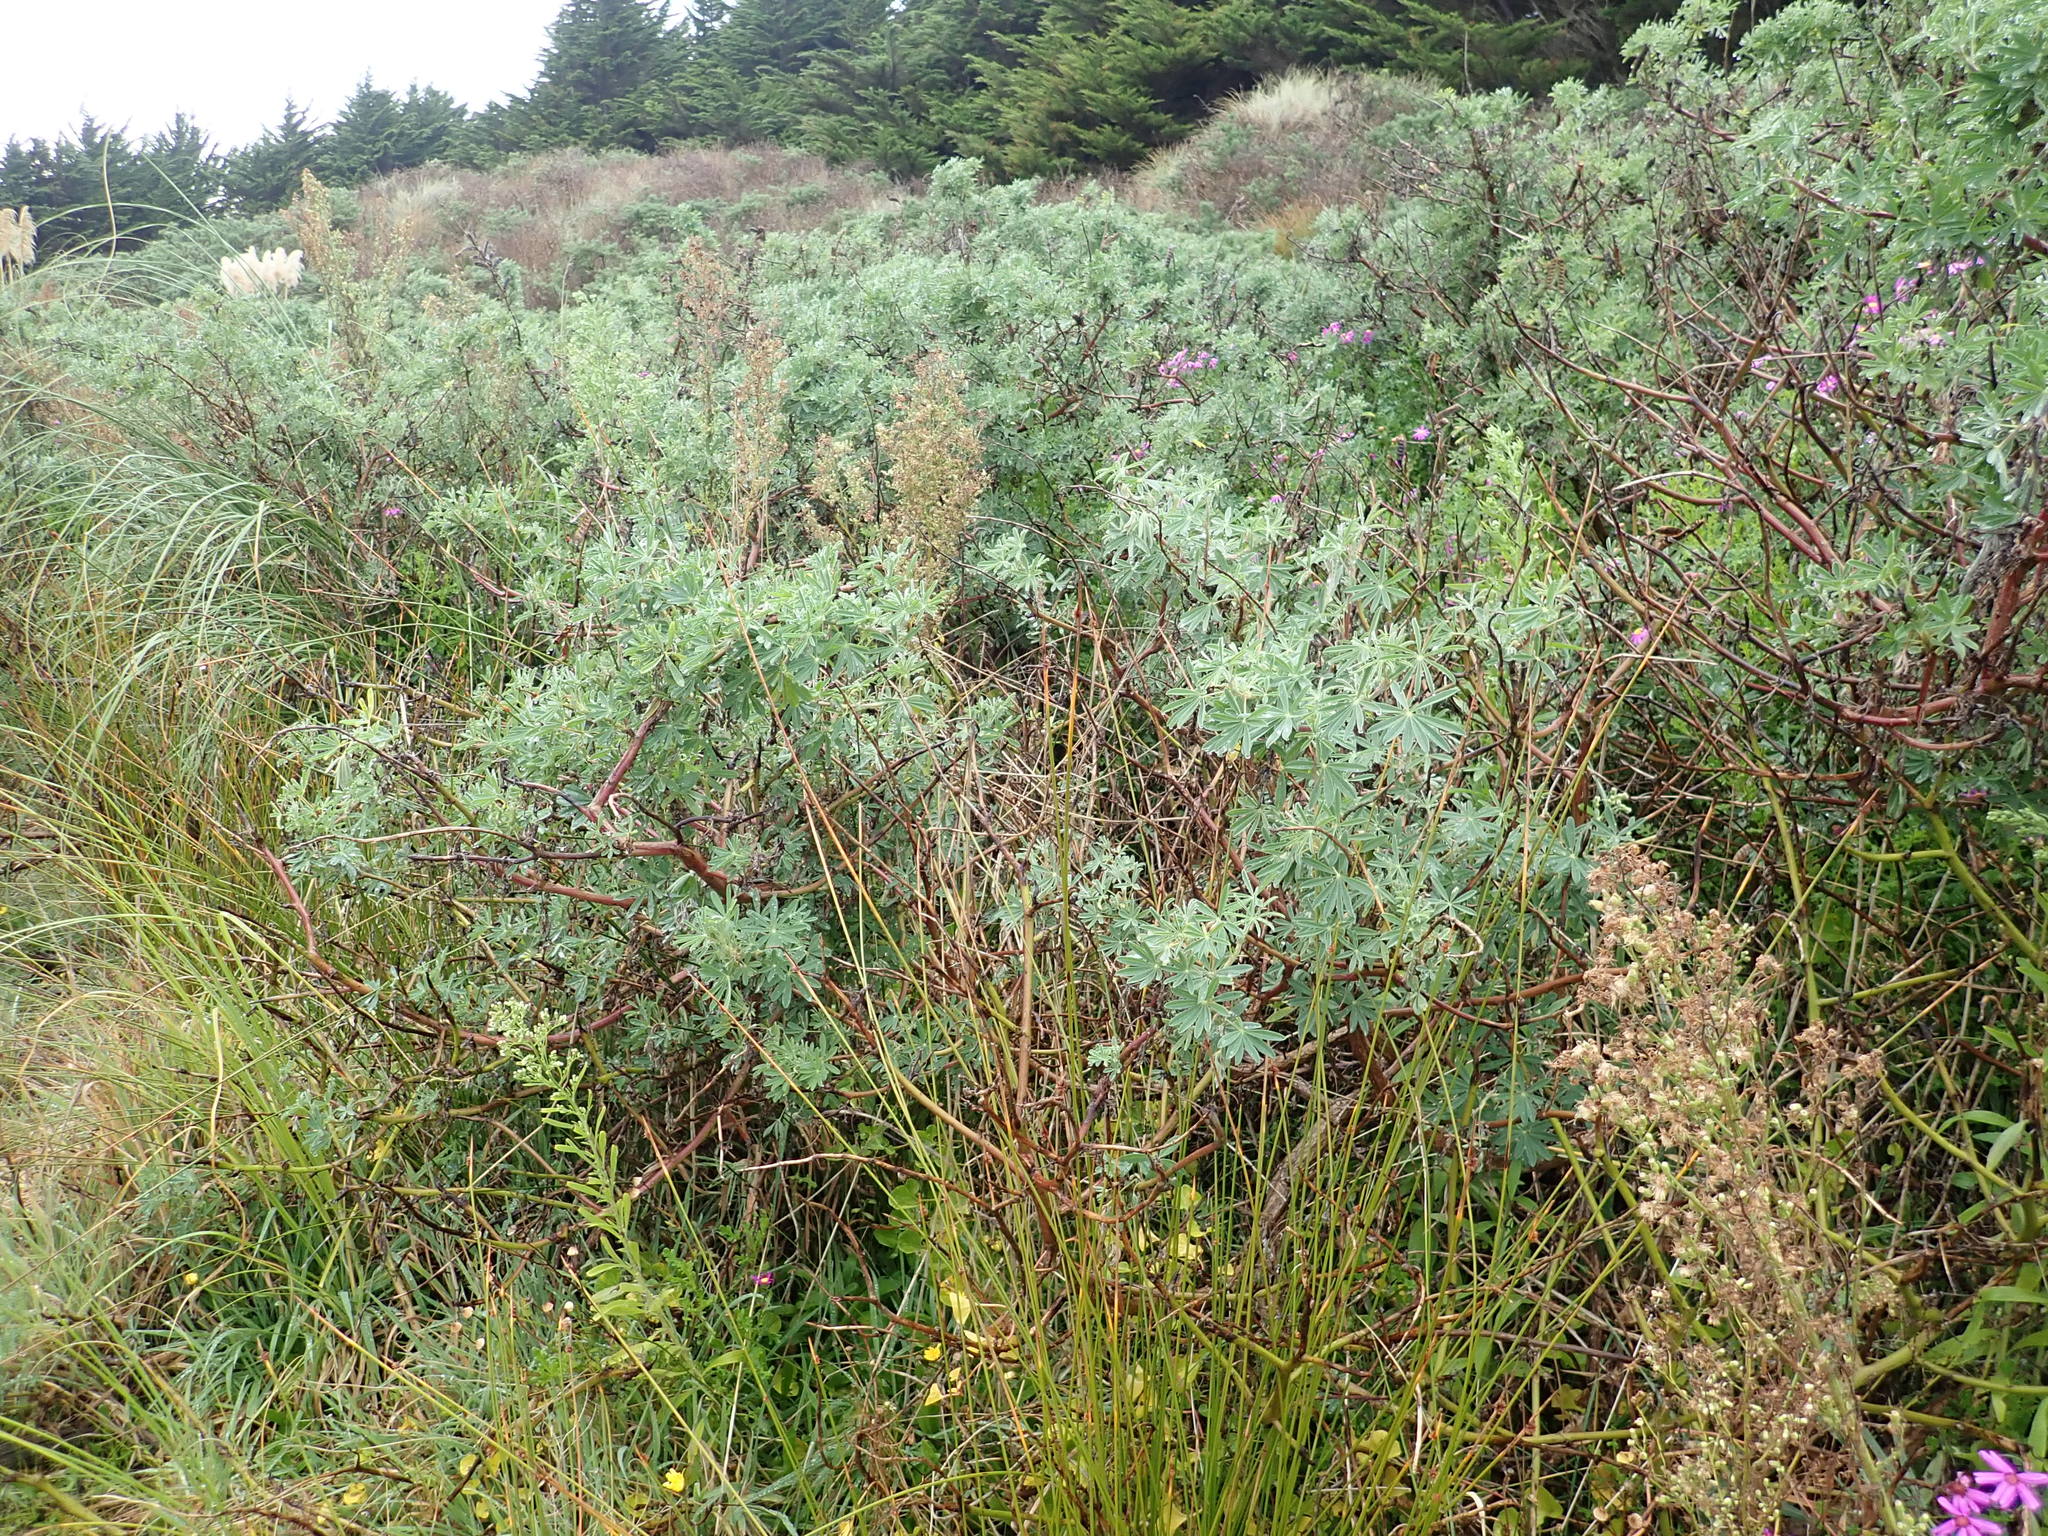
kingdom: Plantae
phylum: Tracheophyta
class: Magnoliopsida
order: Fabales
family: Fabaceae
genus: Lupinus
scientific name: Lupinus arboreus
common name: Yellow bush lupine
